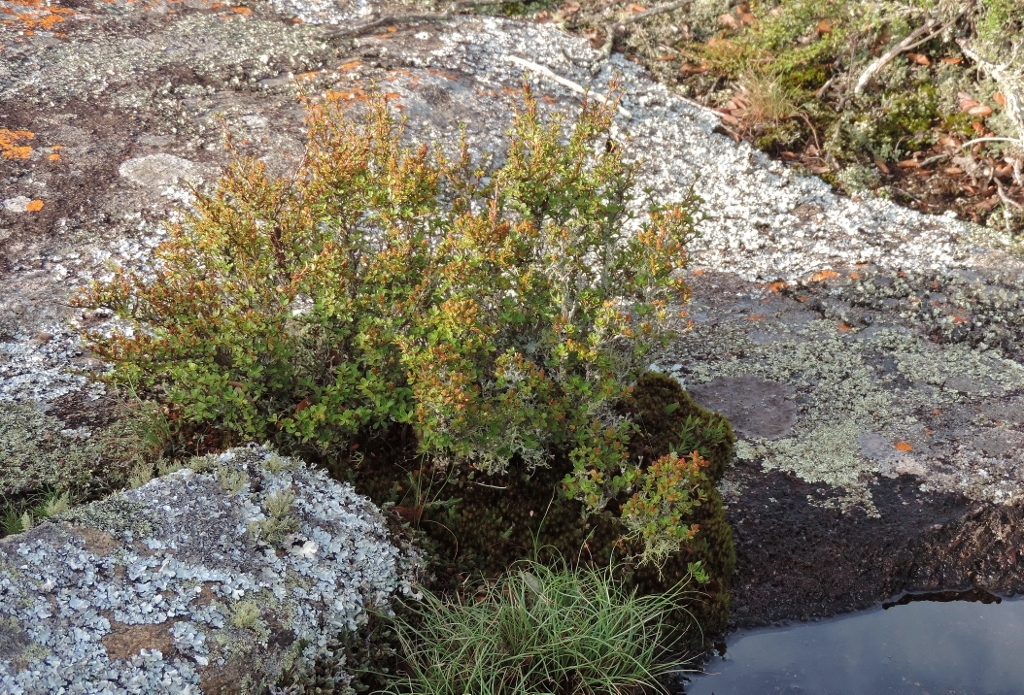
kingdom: Plantae
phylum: Tracheophyta
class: Magnoliopsida
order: Gunnerales
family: Myrothamnaceae
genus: Myrothamnus
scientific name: Myrothamnus flabellifolius
